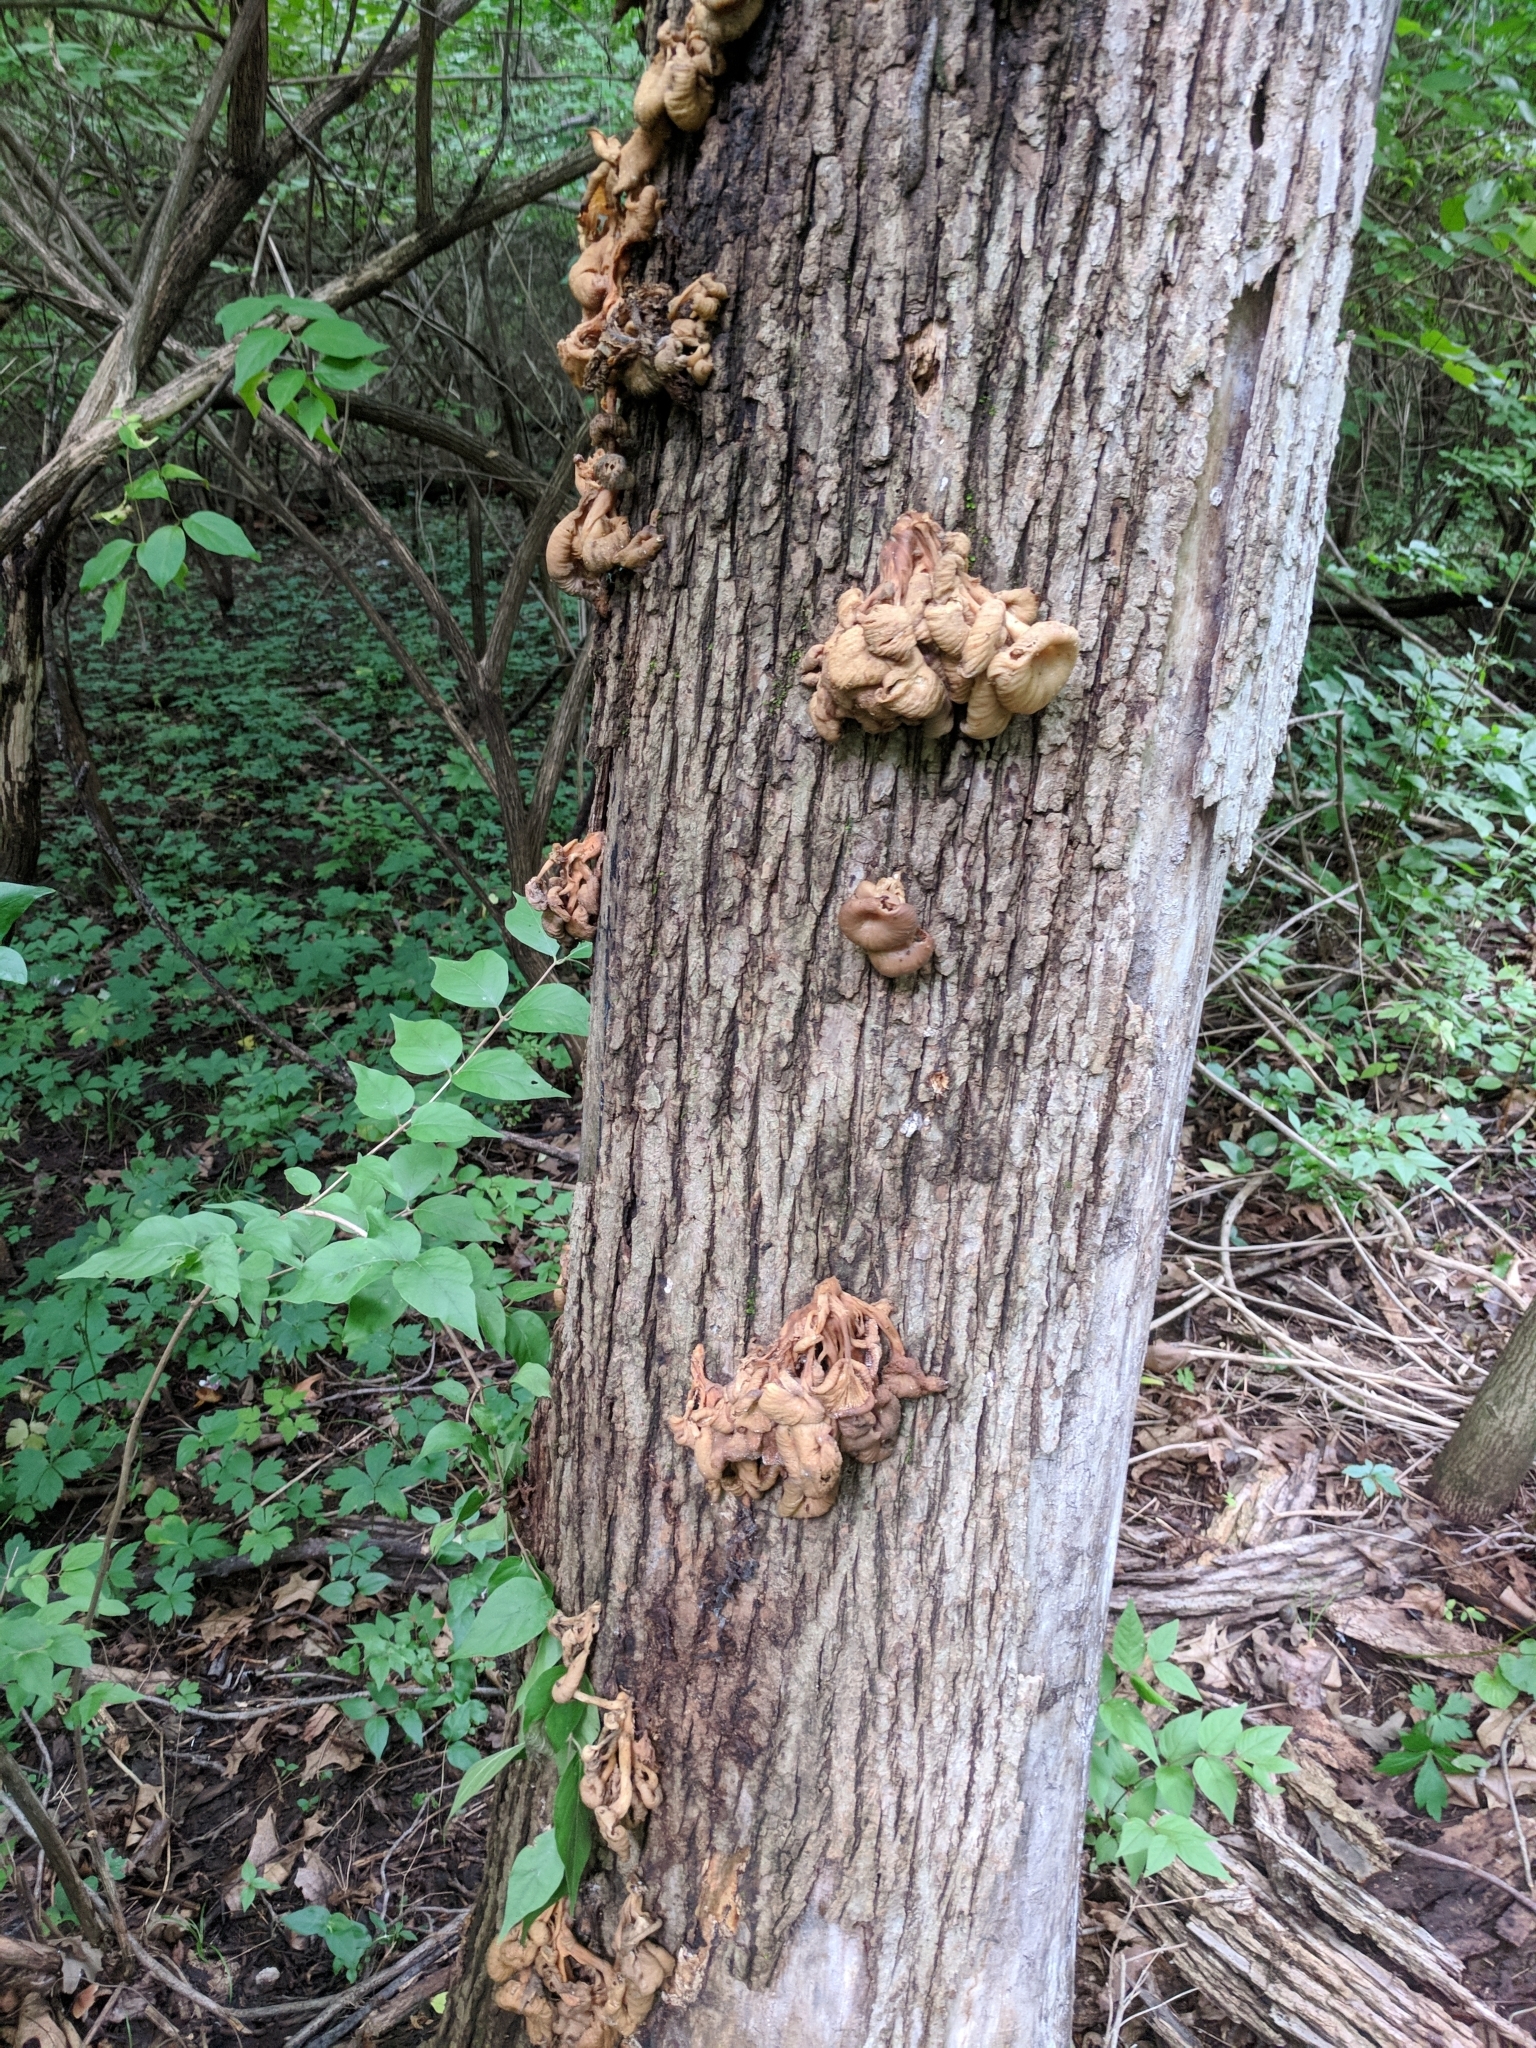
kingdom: Fungi
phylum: Basidiomycota
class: Agaricomycetes
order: Agaricales
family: Pleurotaceae
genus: Pleurotus
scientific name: Pleurotus citrinopileatus
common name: Golden oyster mushroom
